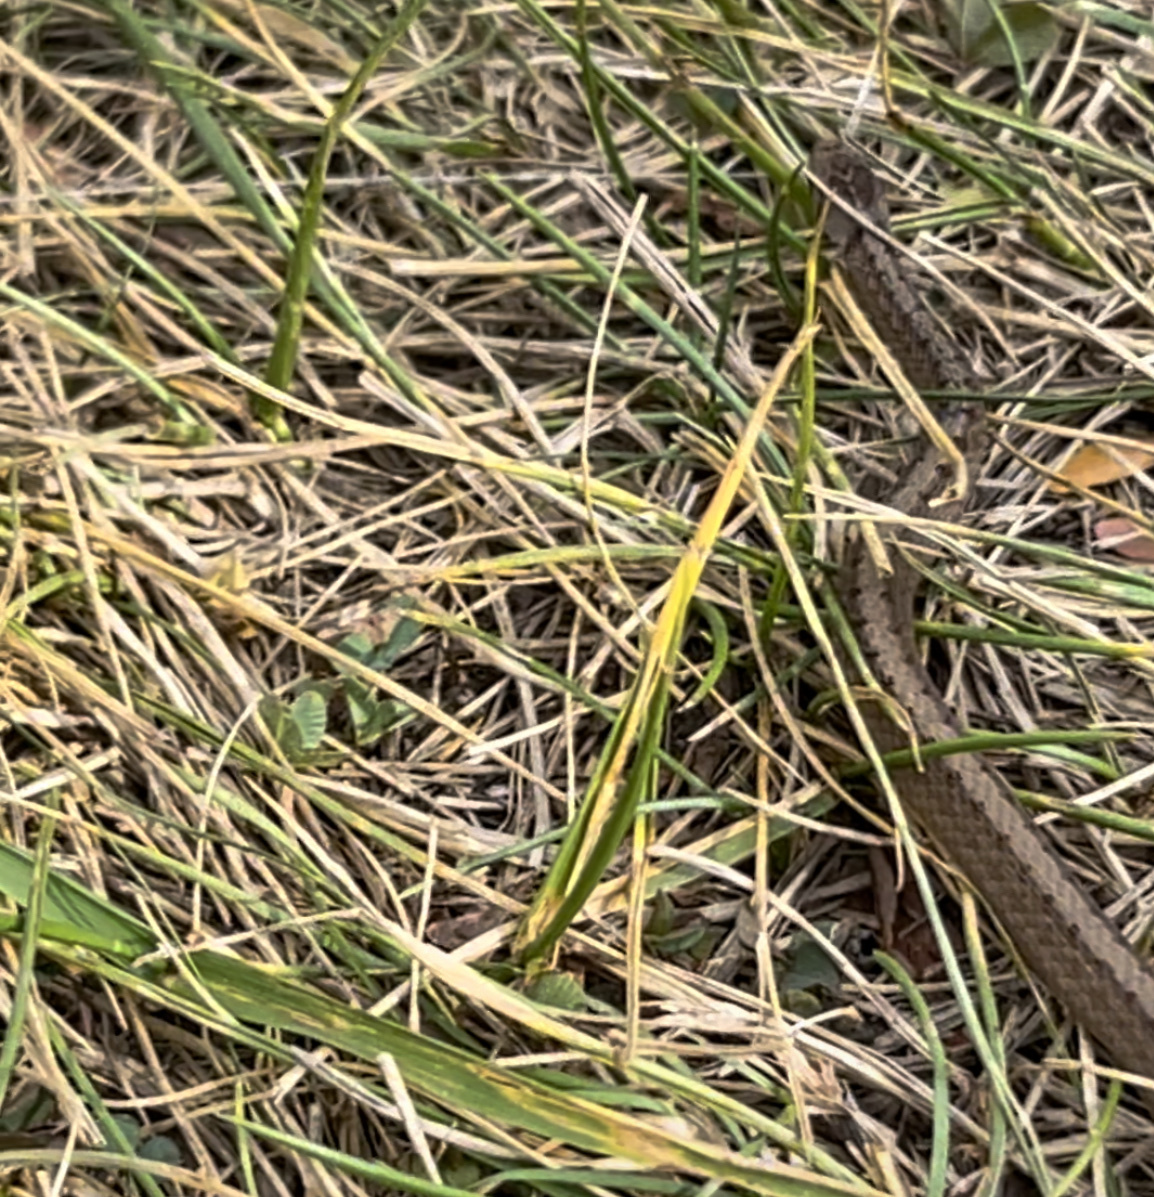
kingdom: Animalia
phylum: Chordata
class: Squamata
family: Colubridae
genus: Storeria
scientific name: Storeria dekayi
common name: (dekay’s) brown snake
